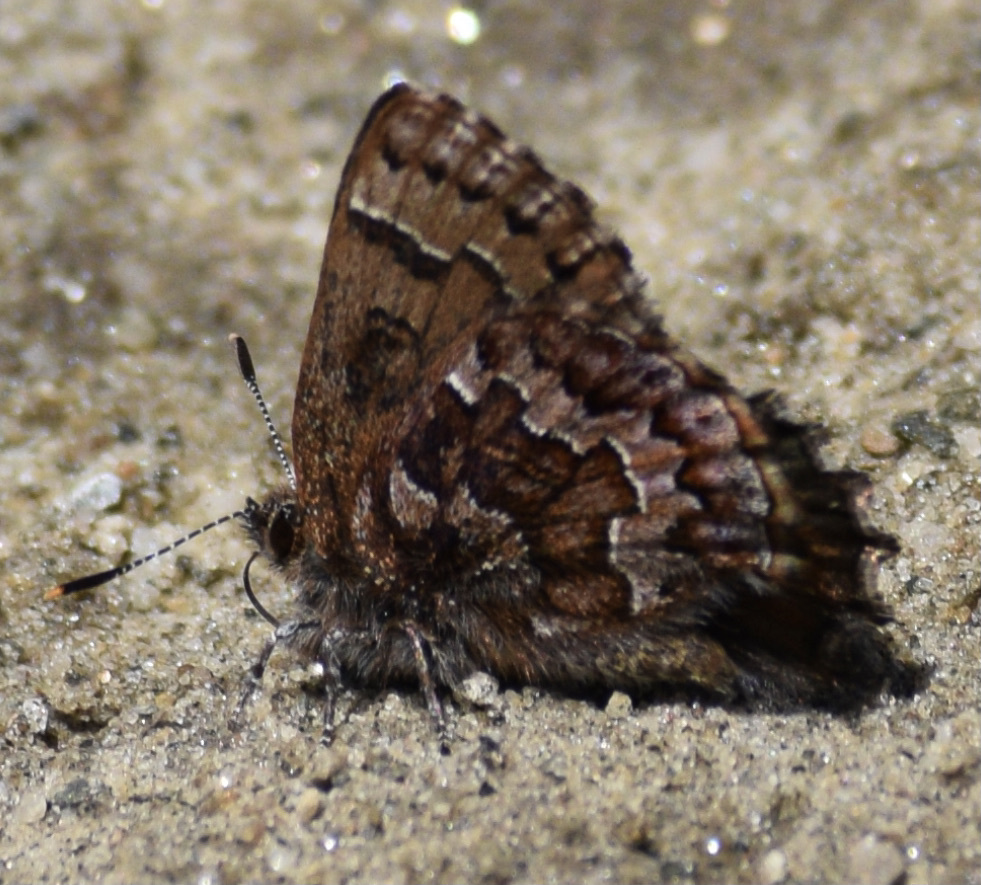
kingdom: Animalia
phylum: Arthropoda
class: Insecta
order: Lepidoptera
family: Lycaenidae
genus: Incisalia
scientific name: Incisalia niphon
